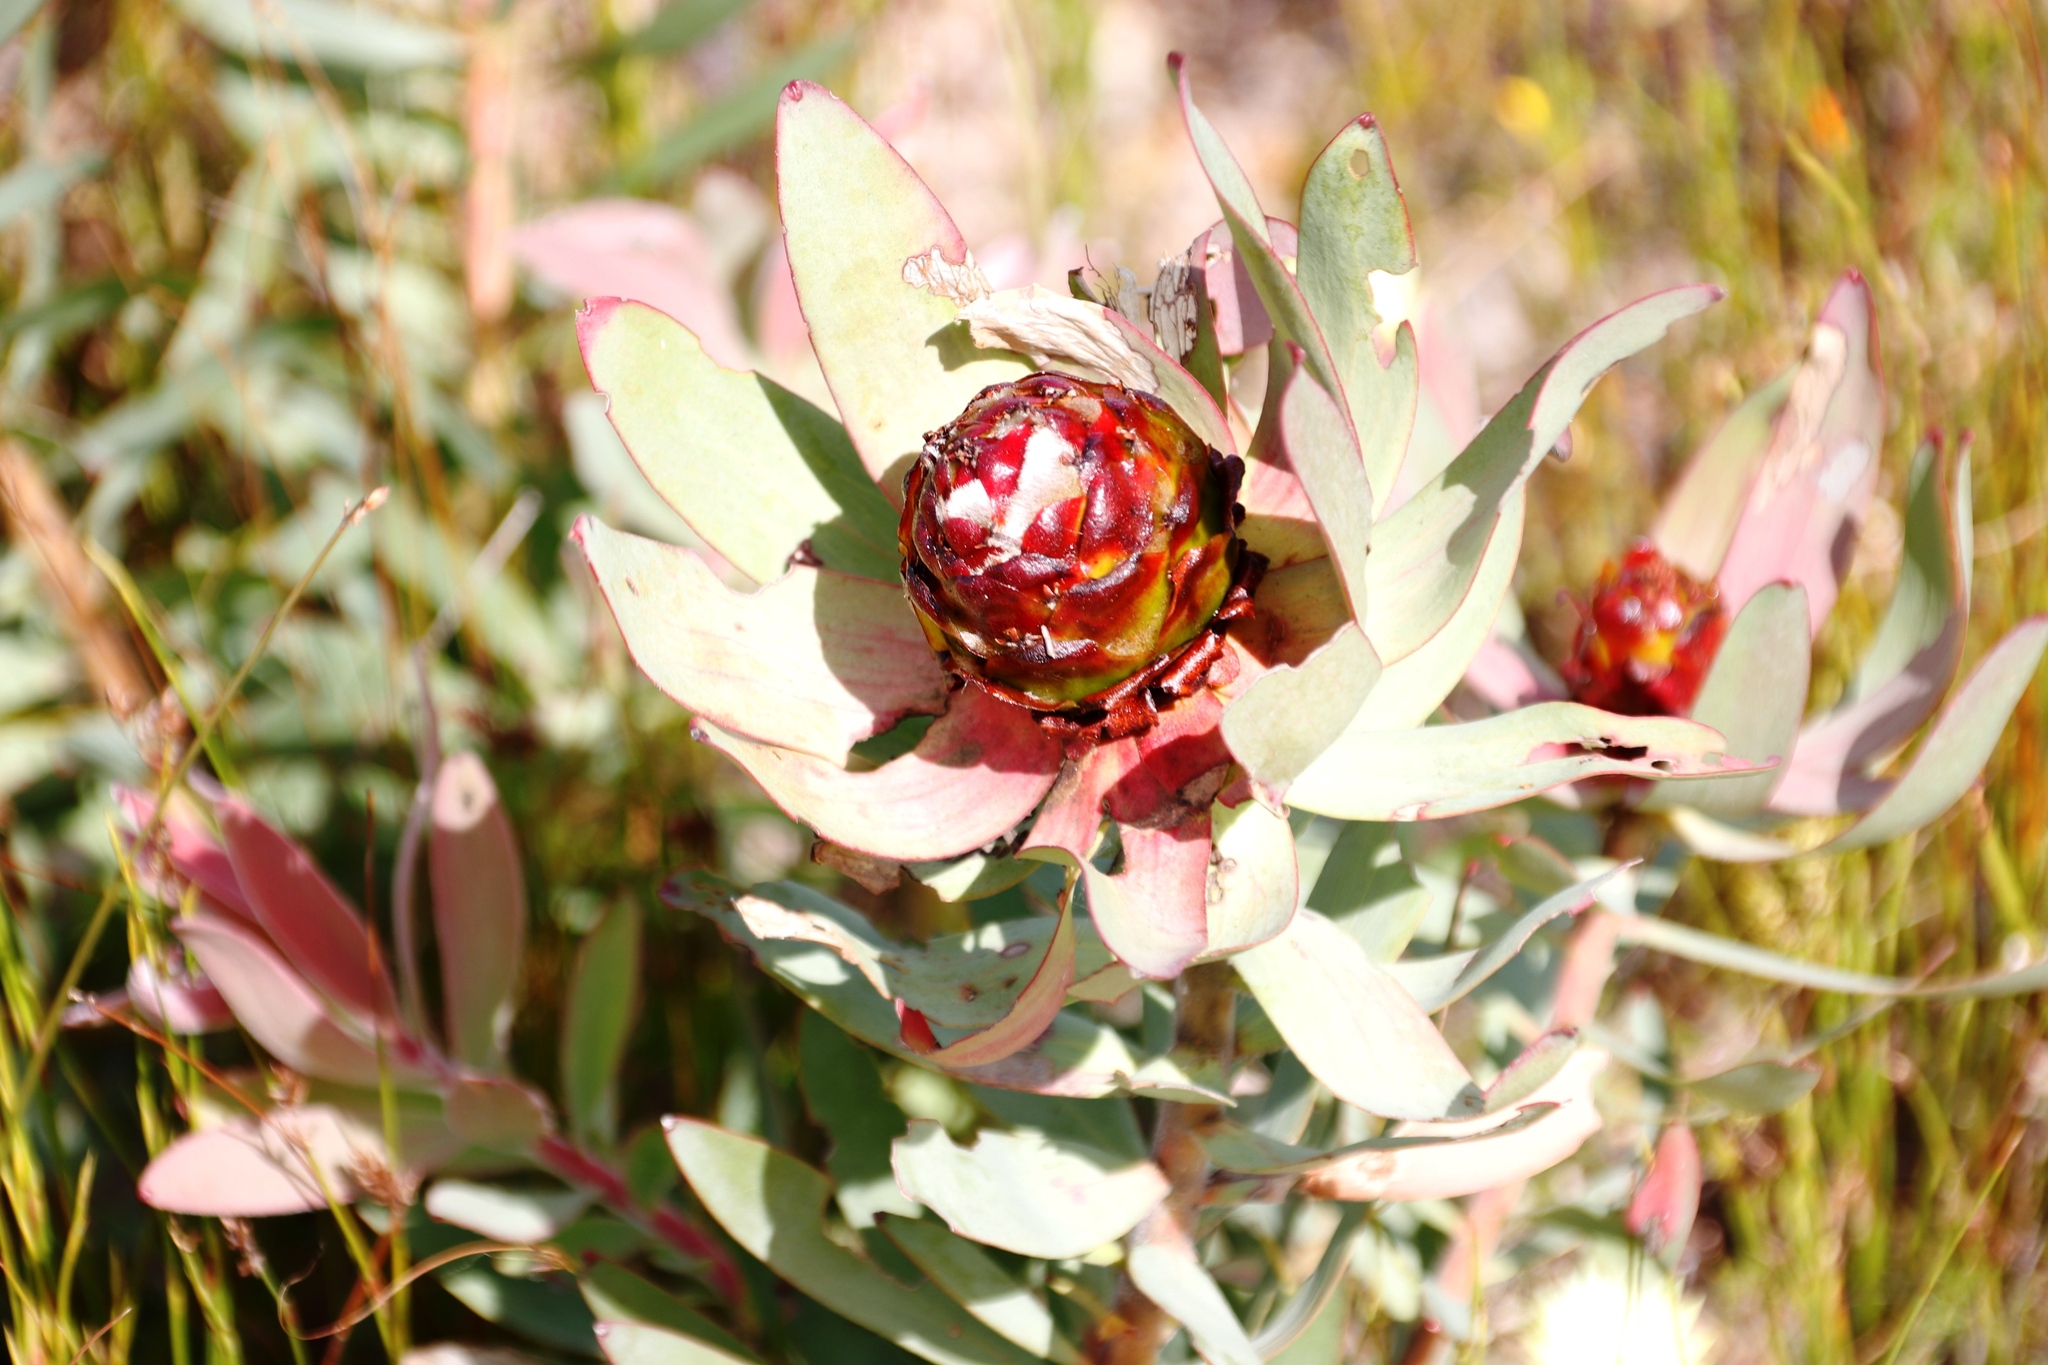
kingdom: Plantae
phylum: Tracheophyta
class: Magnoliopsida
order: Proteales
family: Proteaceae
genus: Leucadendron
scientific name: Leucadendron tinctum
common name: Spicy conebush
